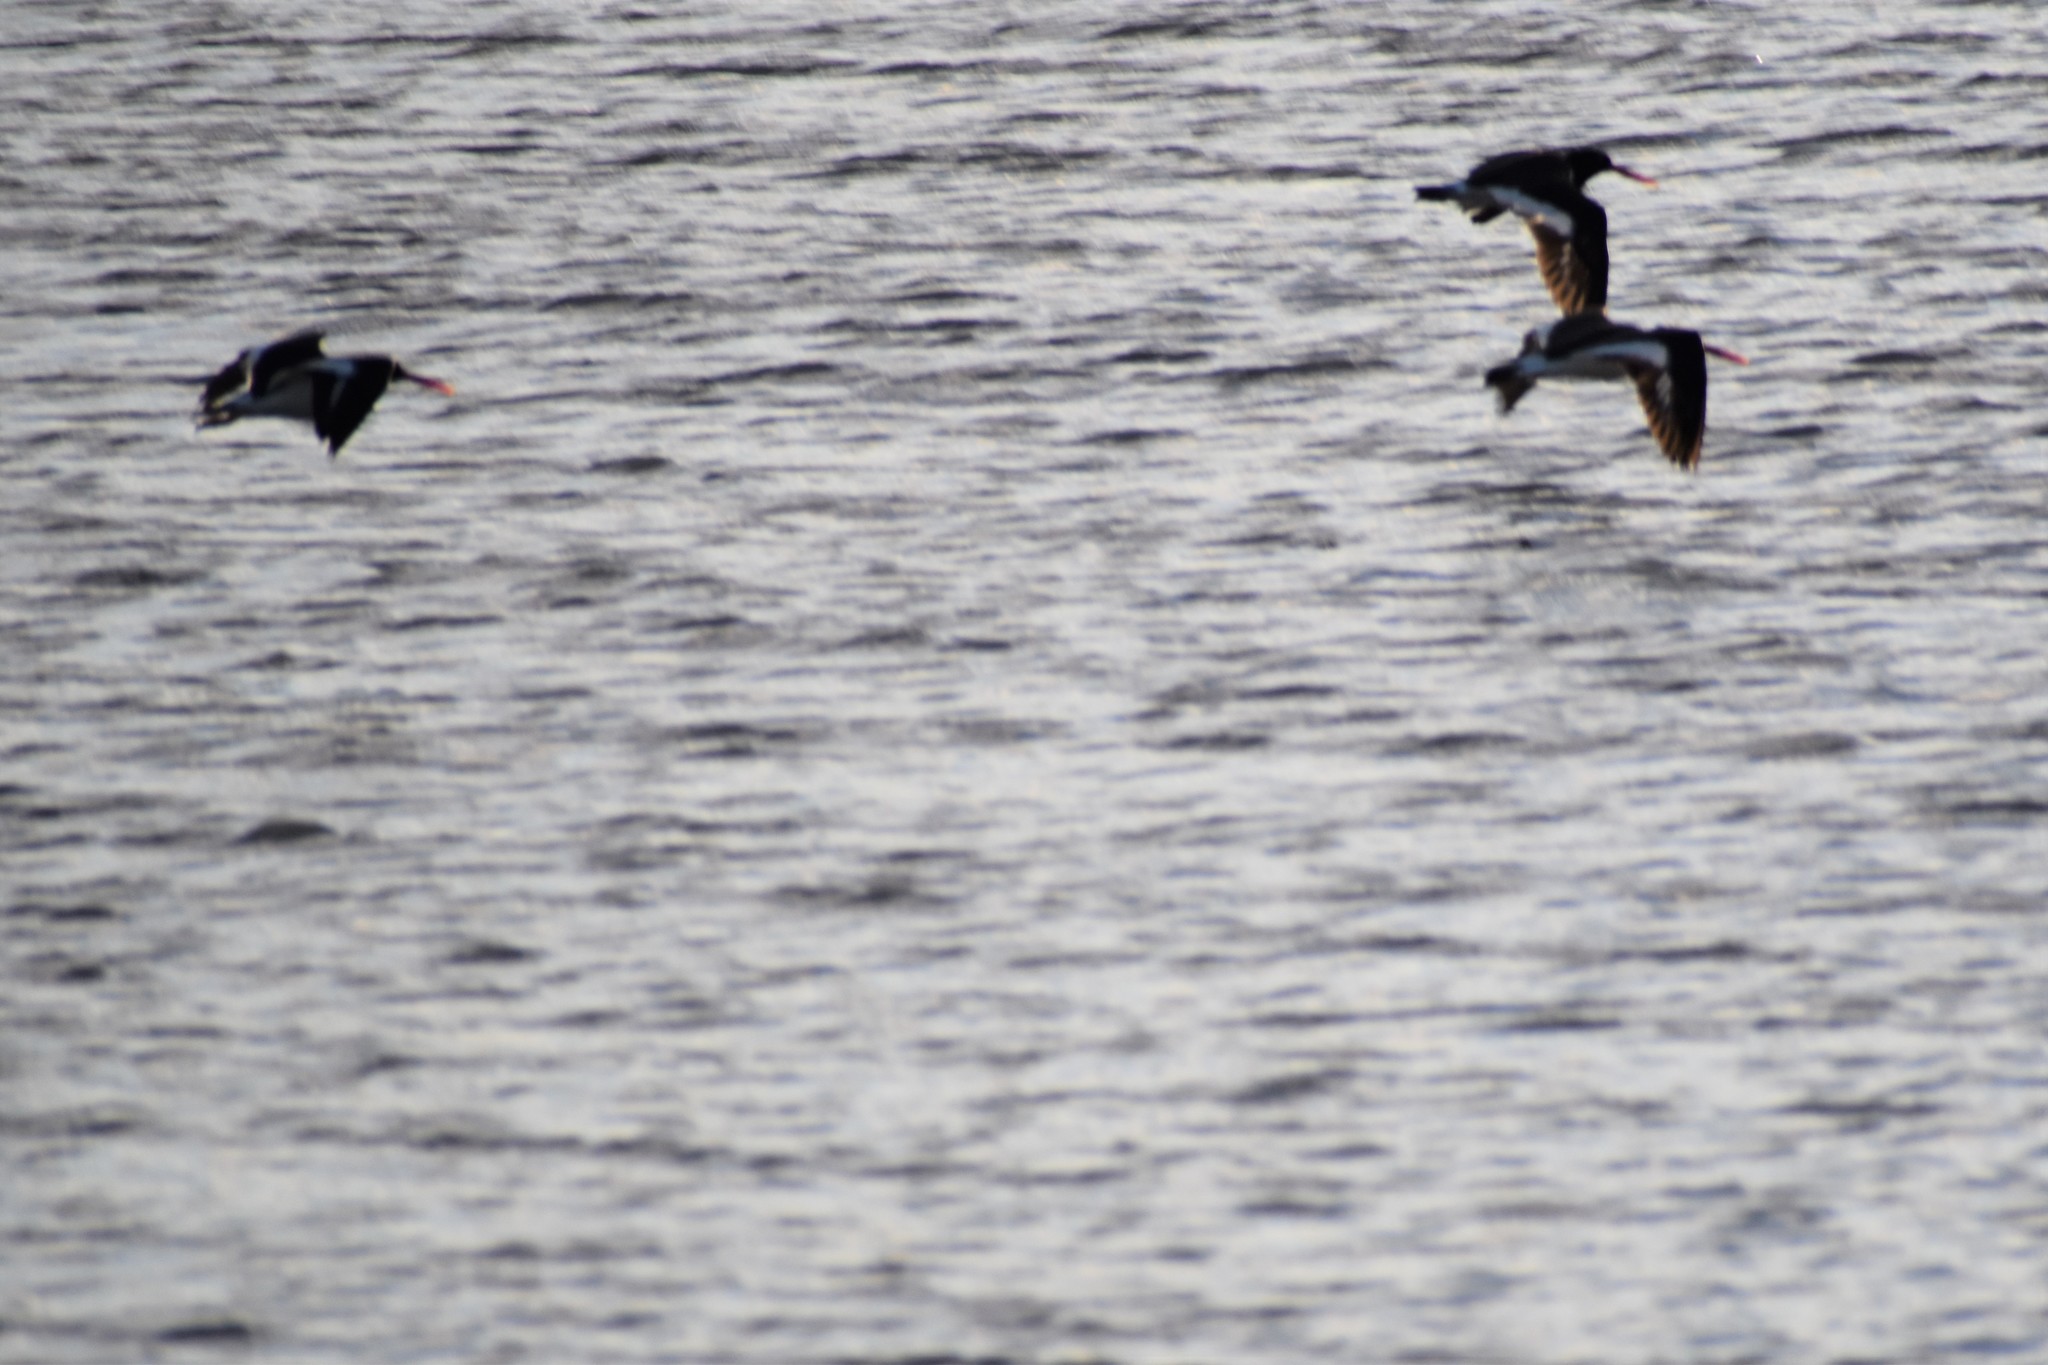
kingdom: Animalia
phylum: Chordata
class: Aves
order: Charadriiformes
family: Haematopodidae
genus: Haematopus
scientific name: Haematopus palliatus
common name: American oystercatcher
